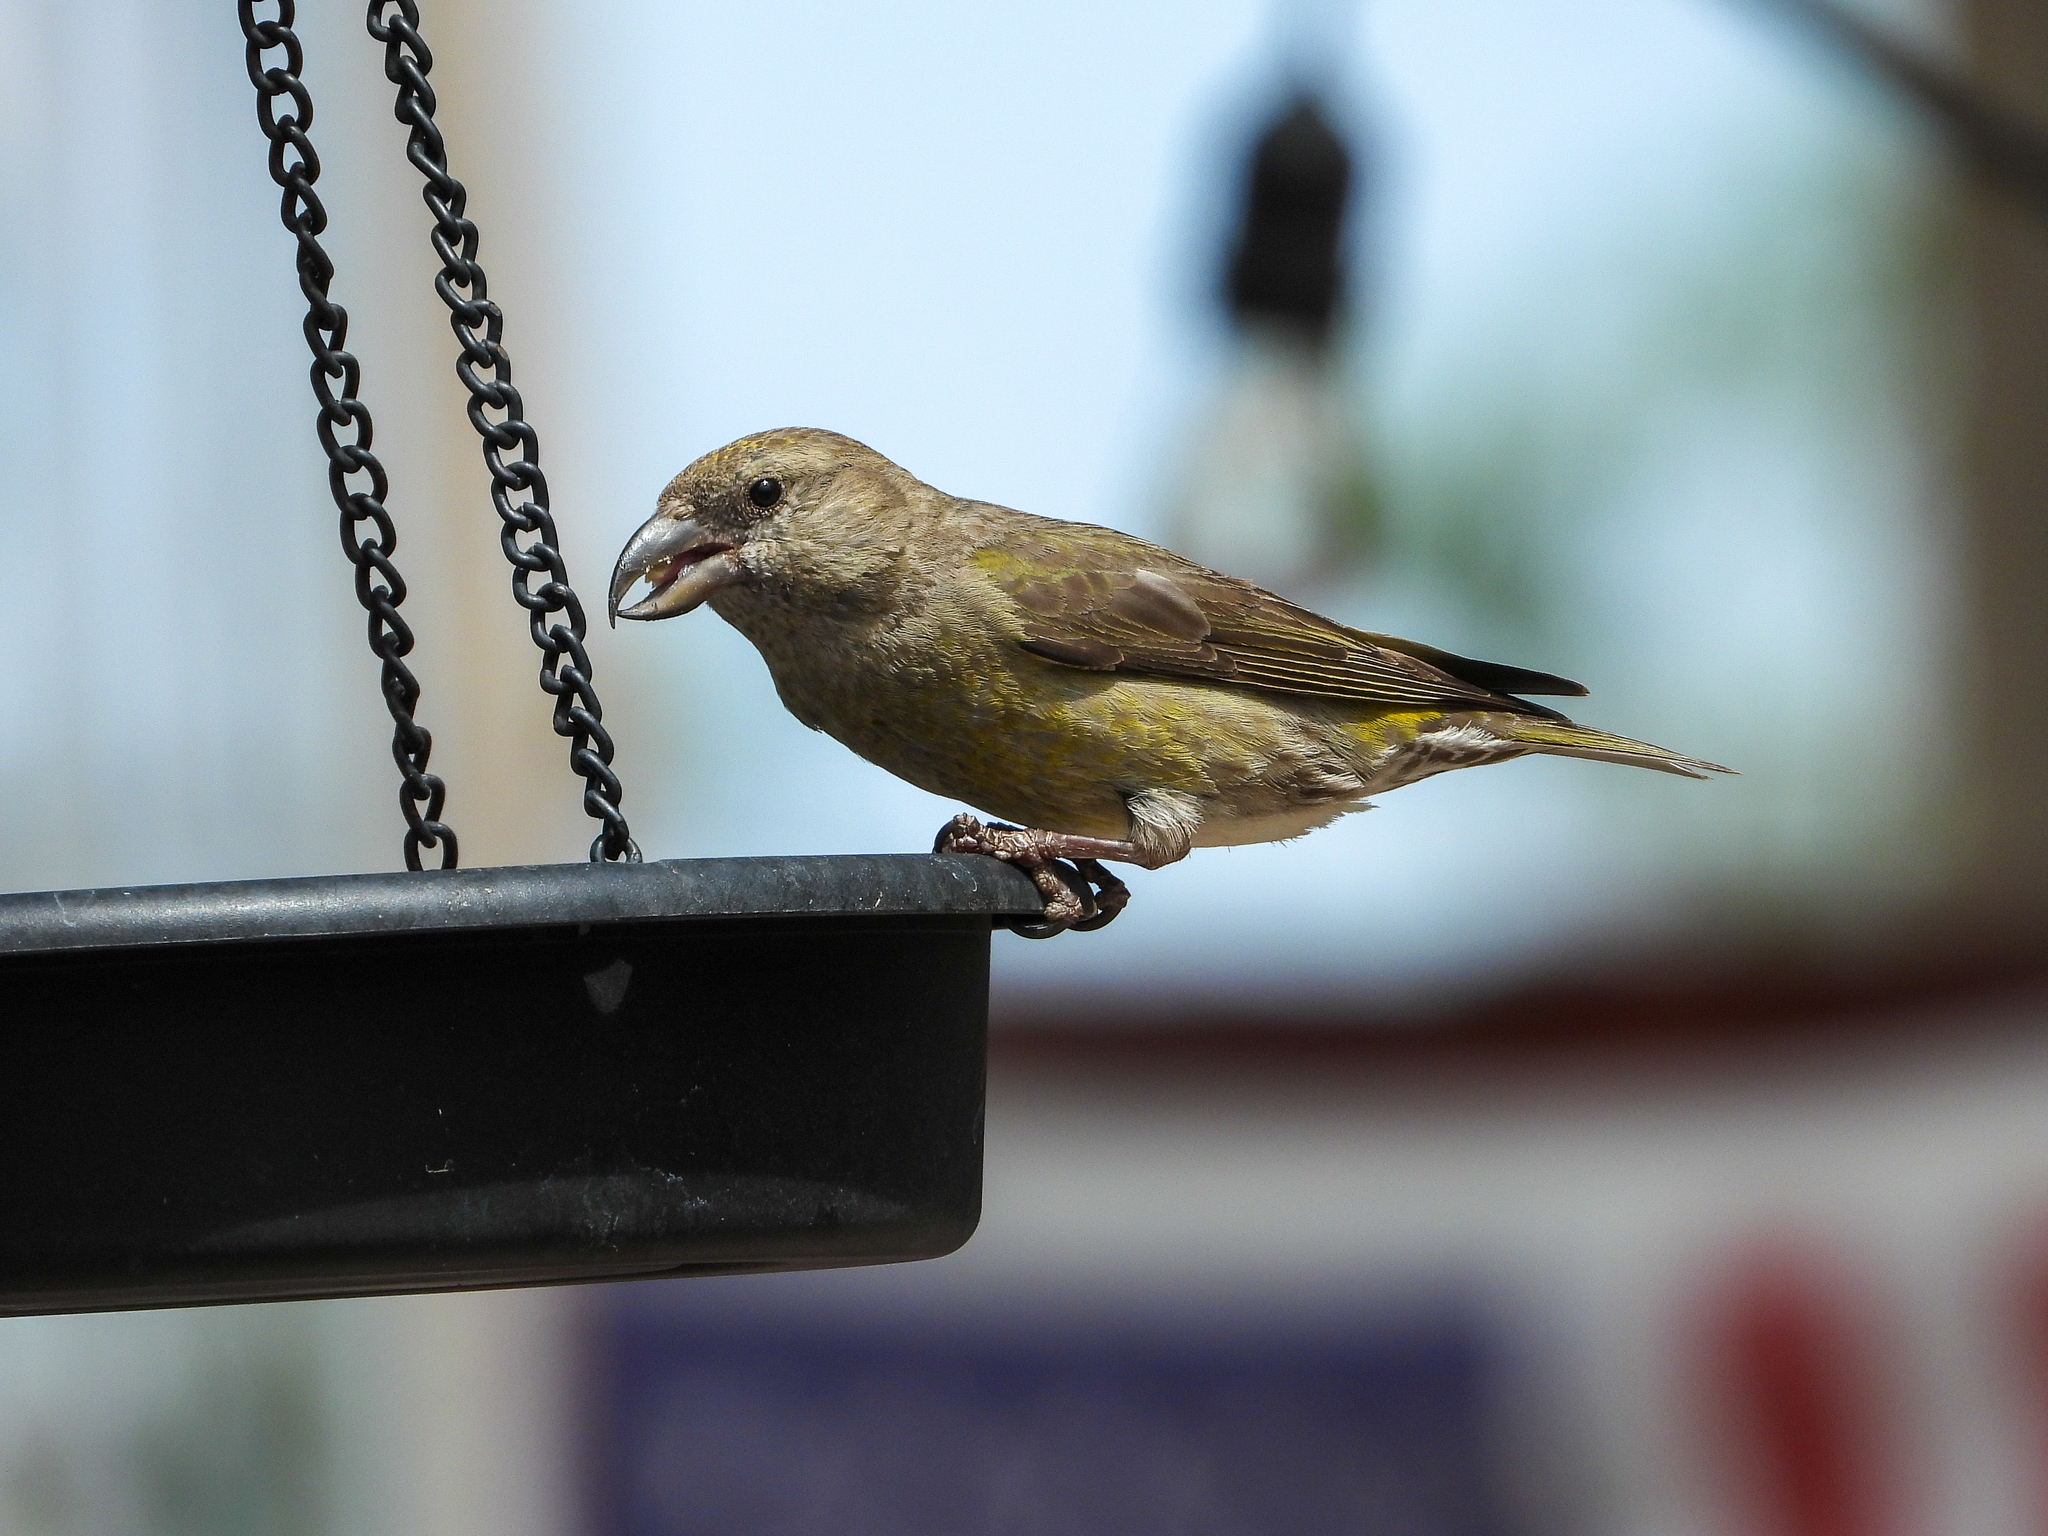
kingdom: Animalia
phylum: Chordata
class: Aves
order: Passeriformes
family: Fringillidae
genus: Loxia
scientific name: Loxia curvirostra
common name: Red crossbill
